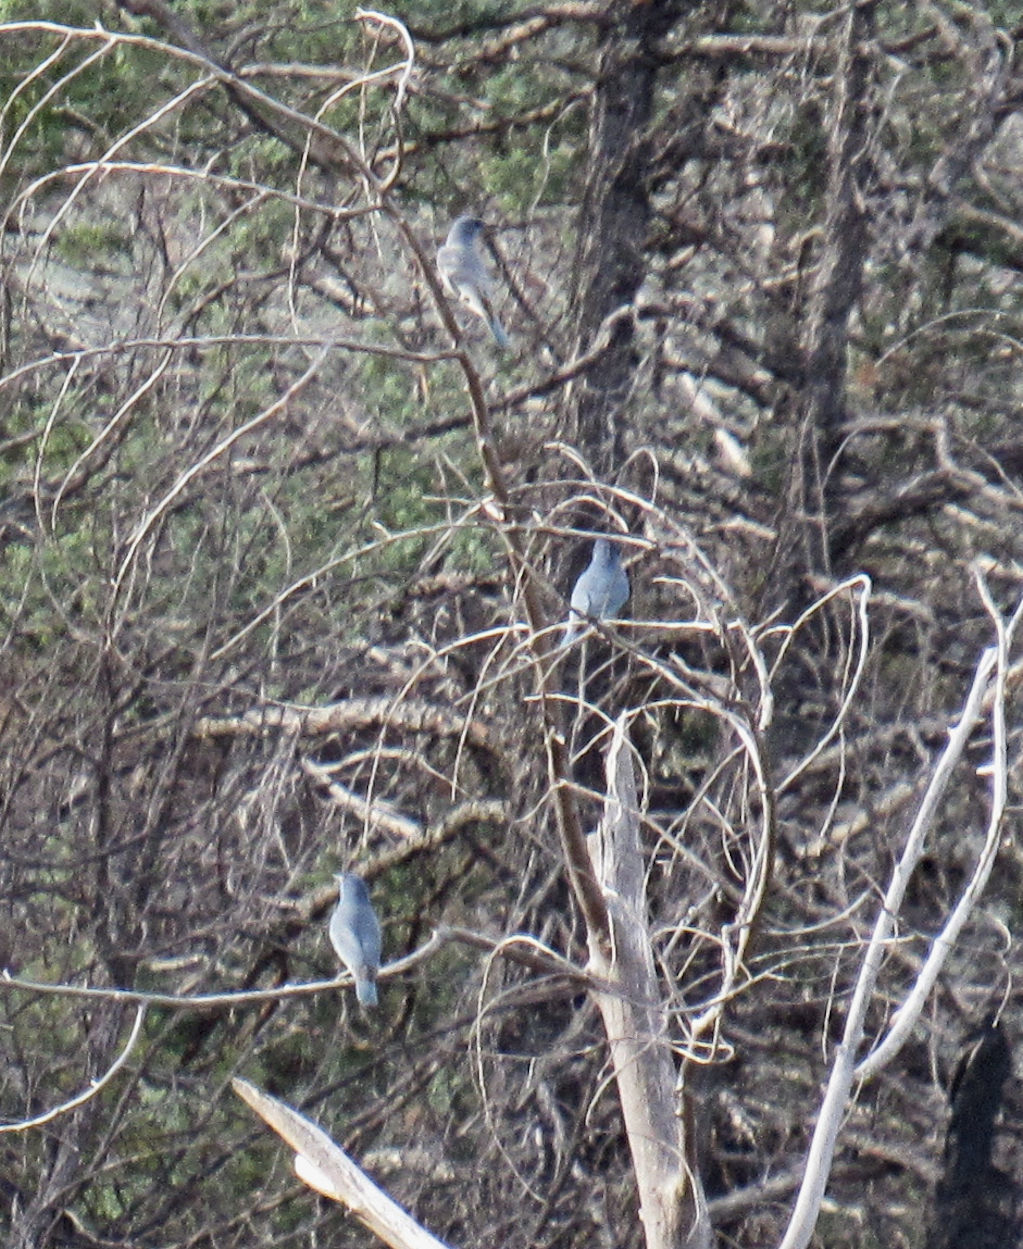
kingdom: Animalia
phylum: Chordata
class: Aves
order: Passeriformes
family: Corvidae
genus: Gymnorhinus
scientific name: Gymnorhinus cyanocephalus
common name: Pinyon jay
